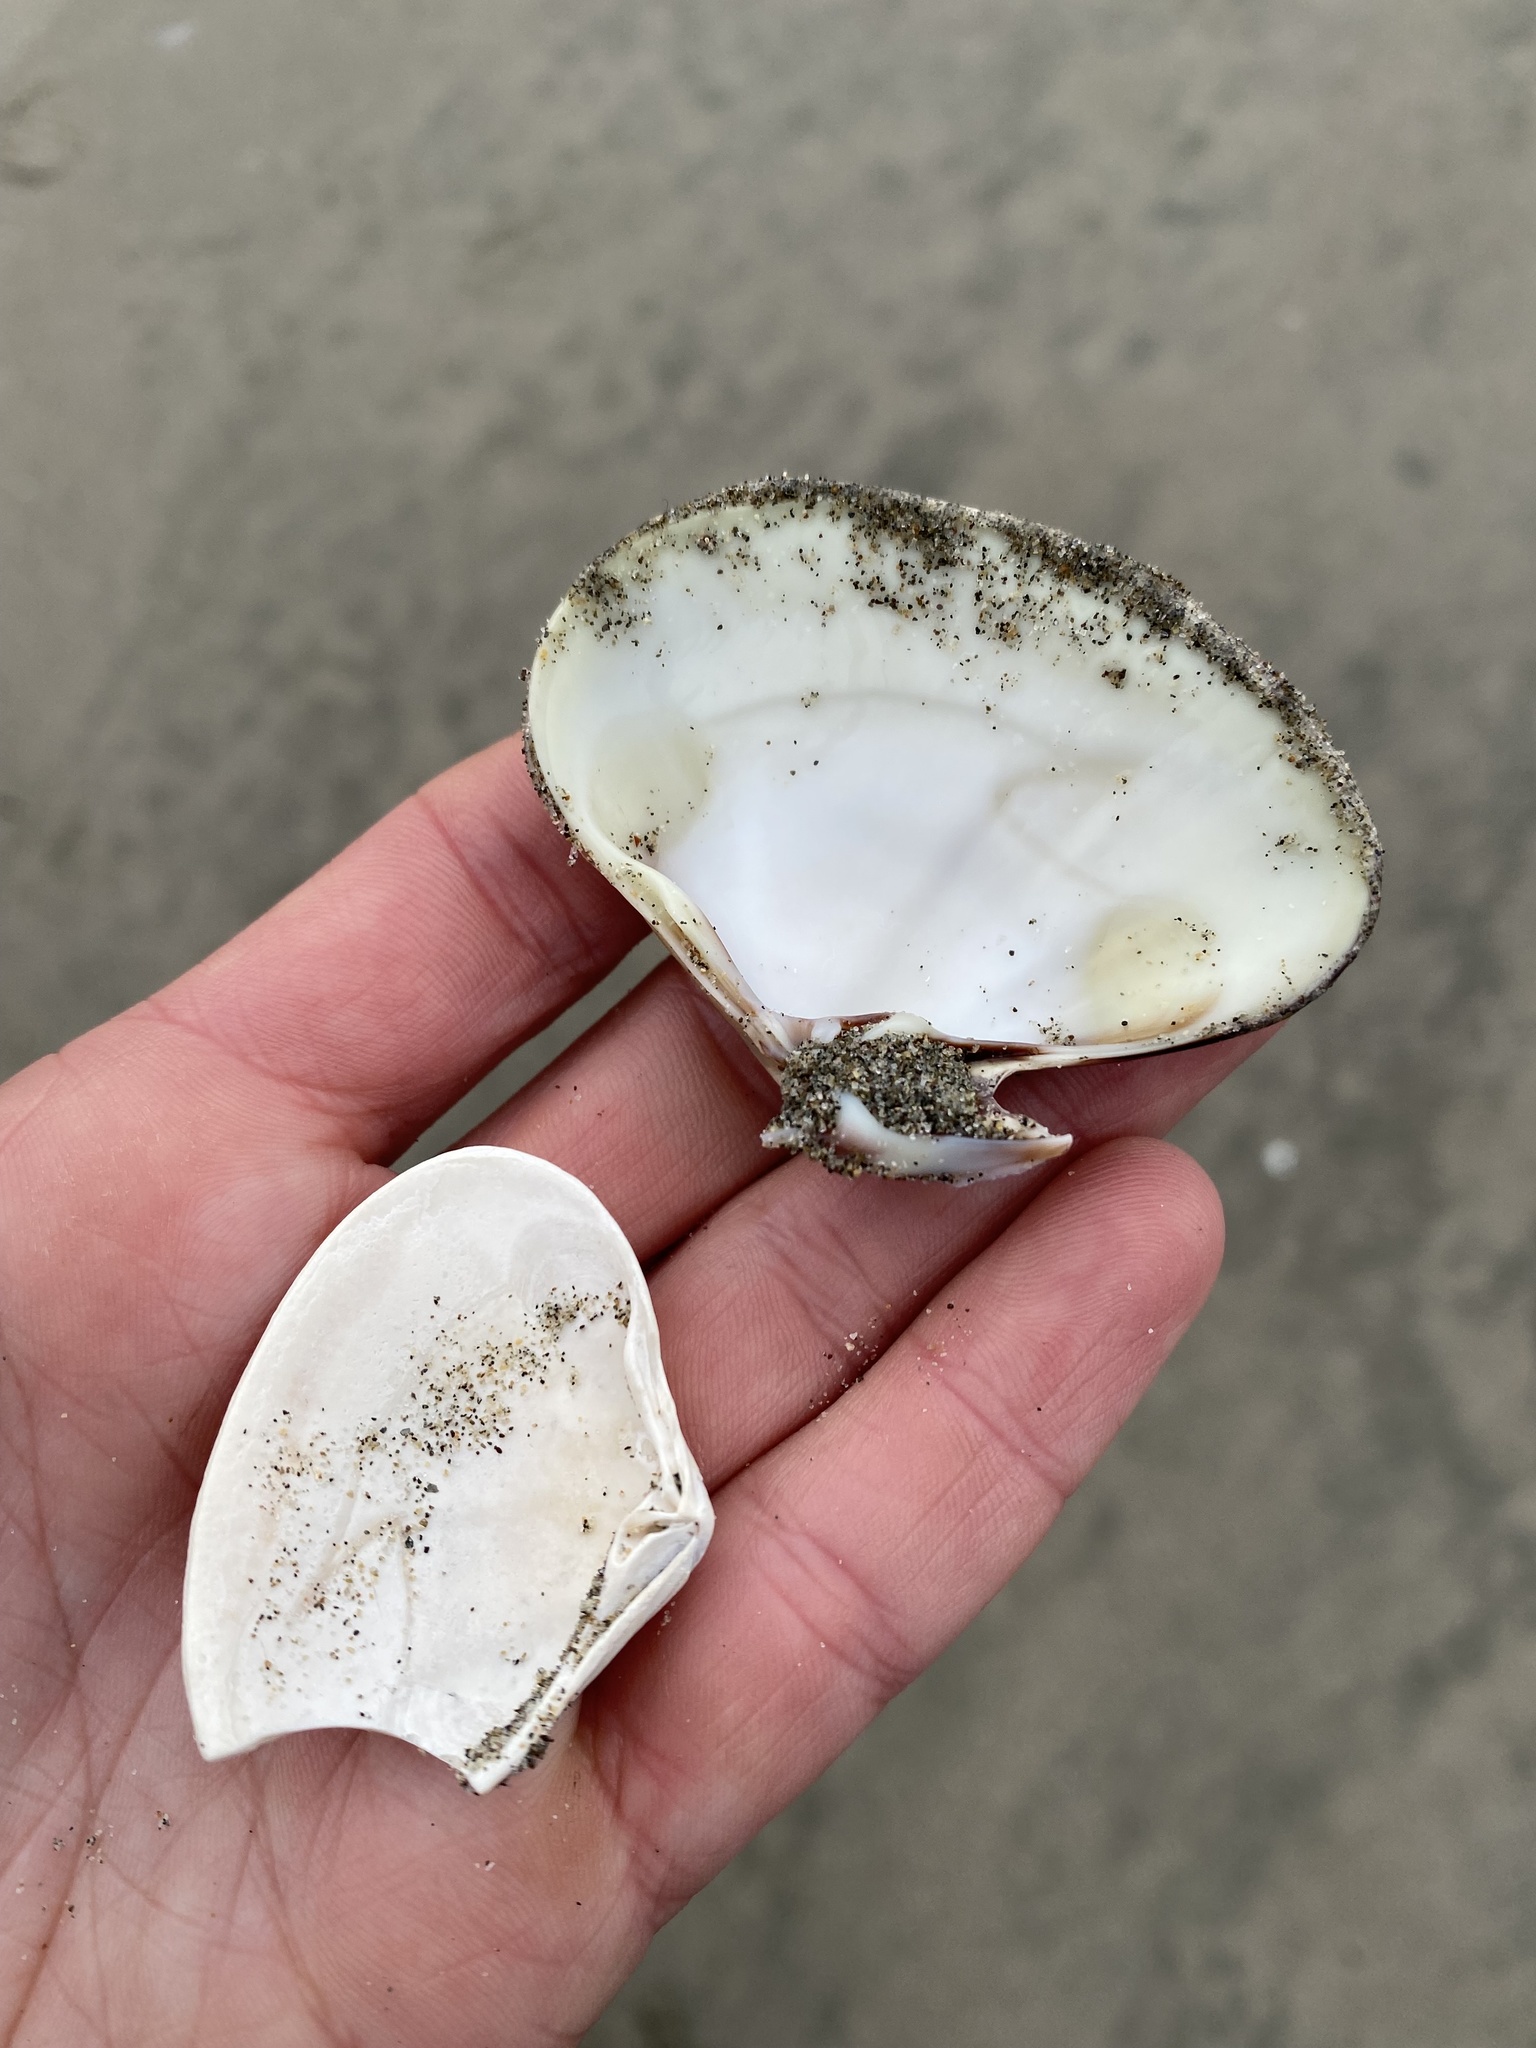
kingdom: Animalia
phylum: Mollusca
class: Bivalvia
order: Venerida
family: Veneridae
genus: Tivela
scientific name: Tivela stultorum
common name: Pismo clam
